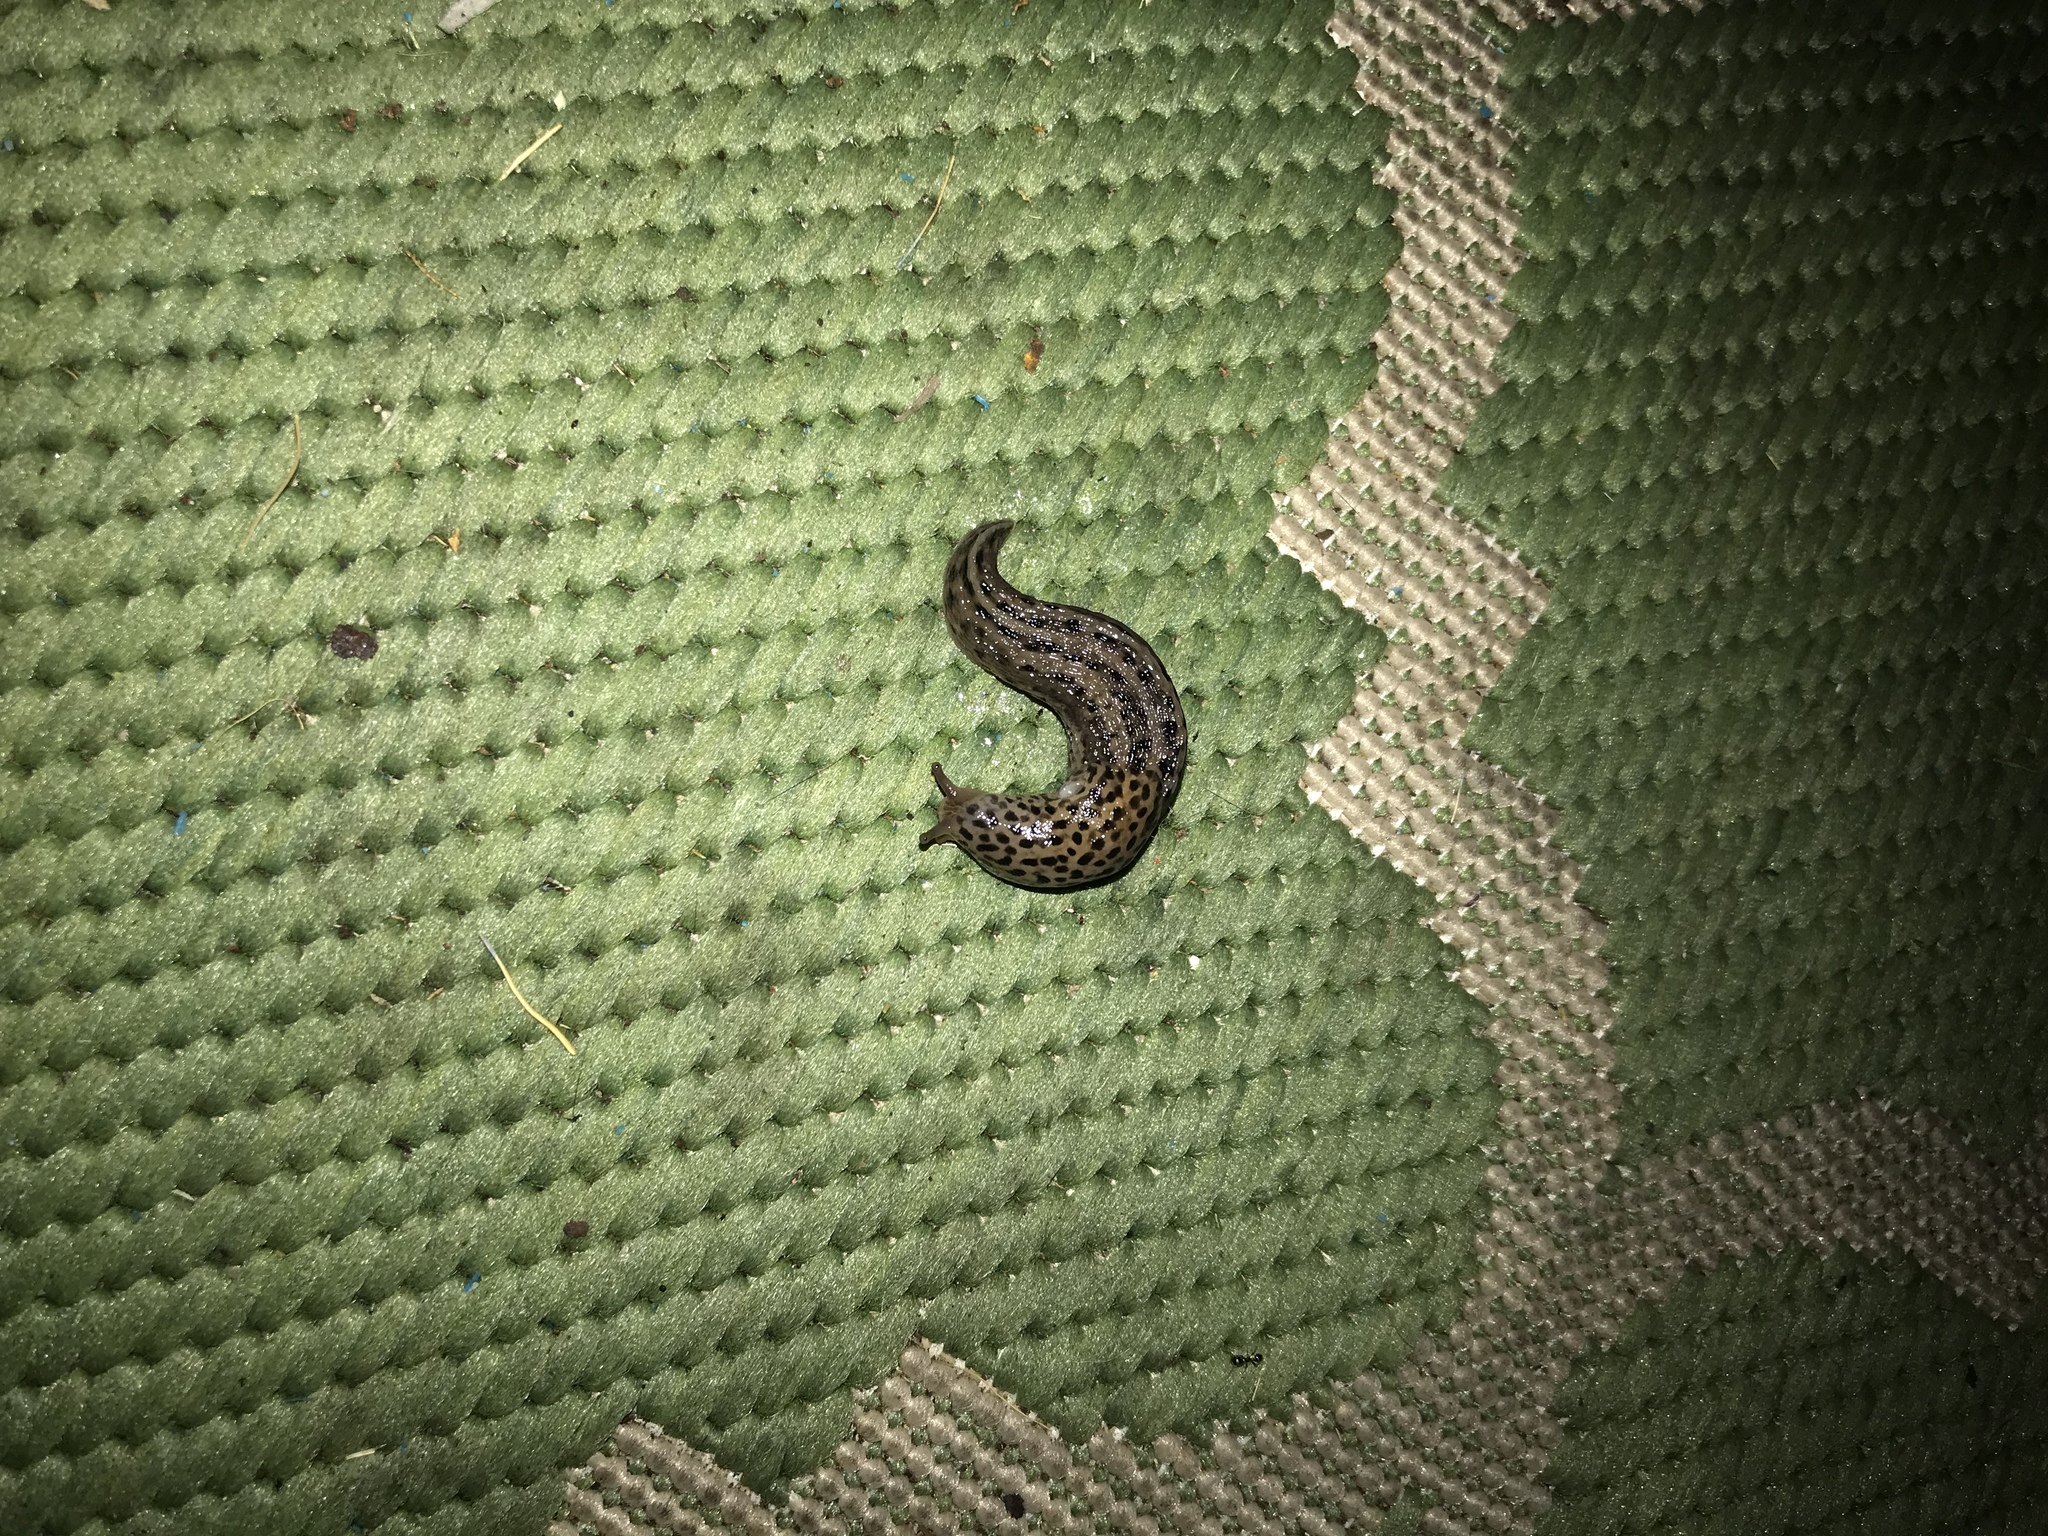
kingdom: Animalia
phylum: Mollusca
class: Gastropoda
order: Stylommatophora
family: Limacidae
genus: Limax
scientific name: Limax maximus
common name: Great grey slug
